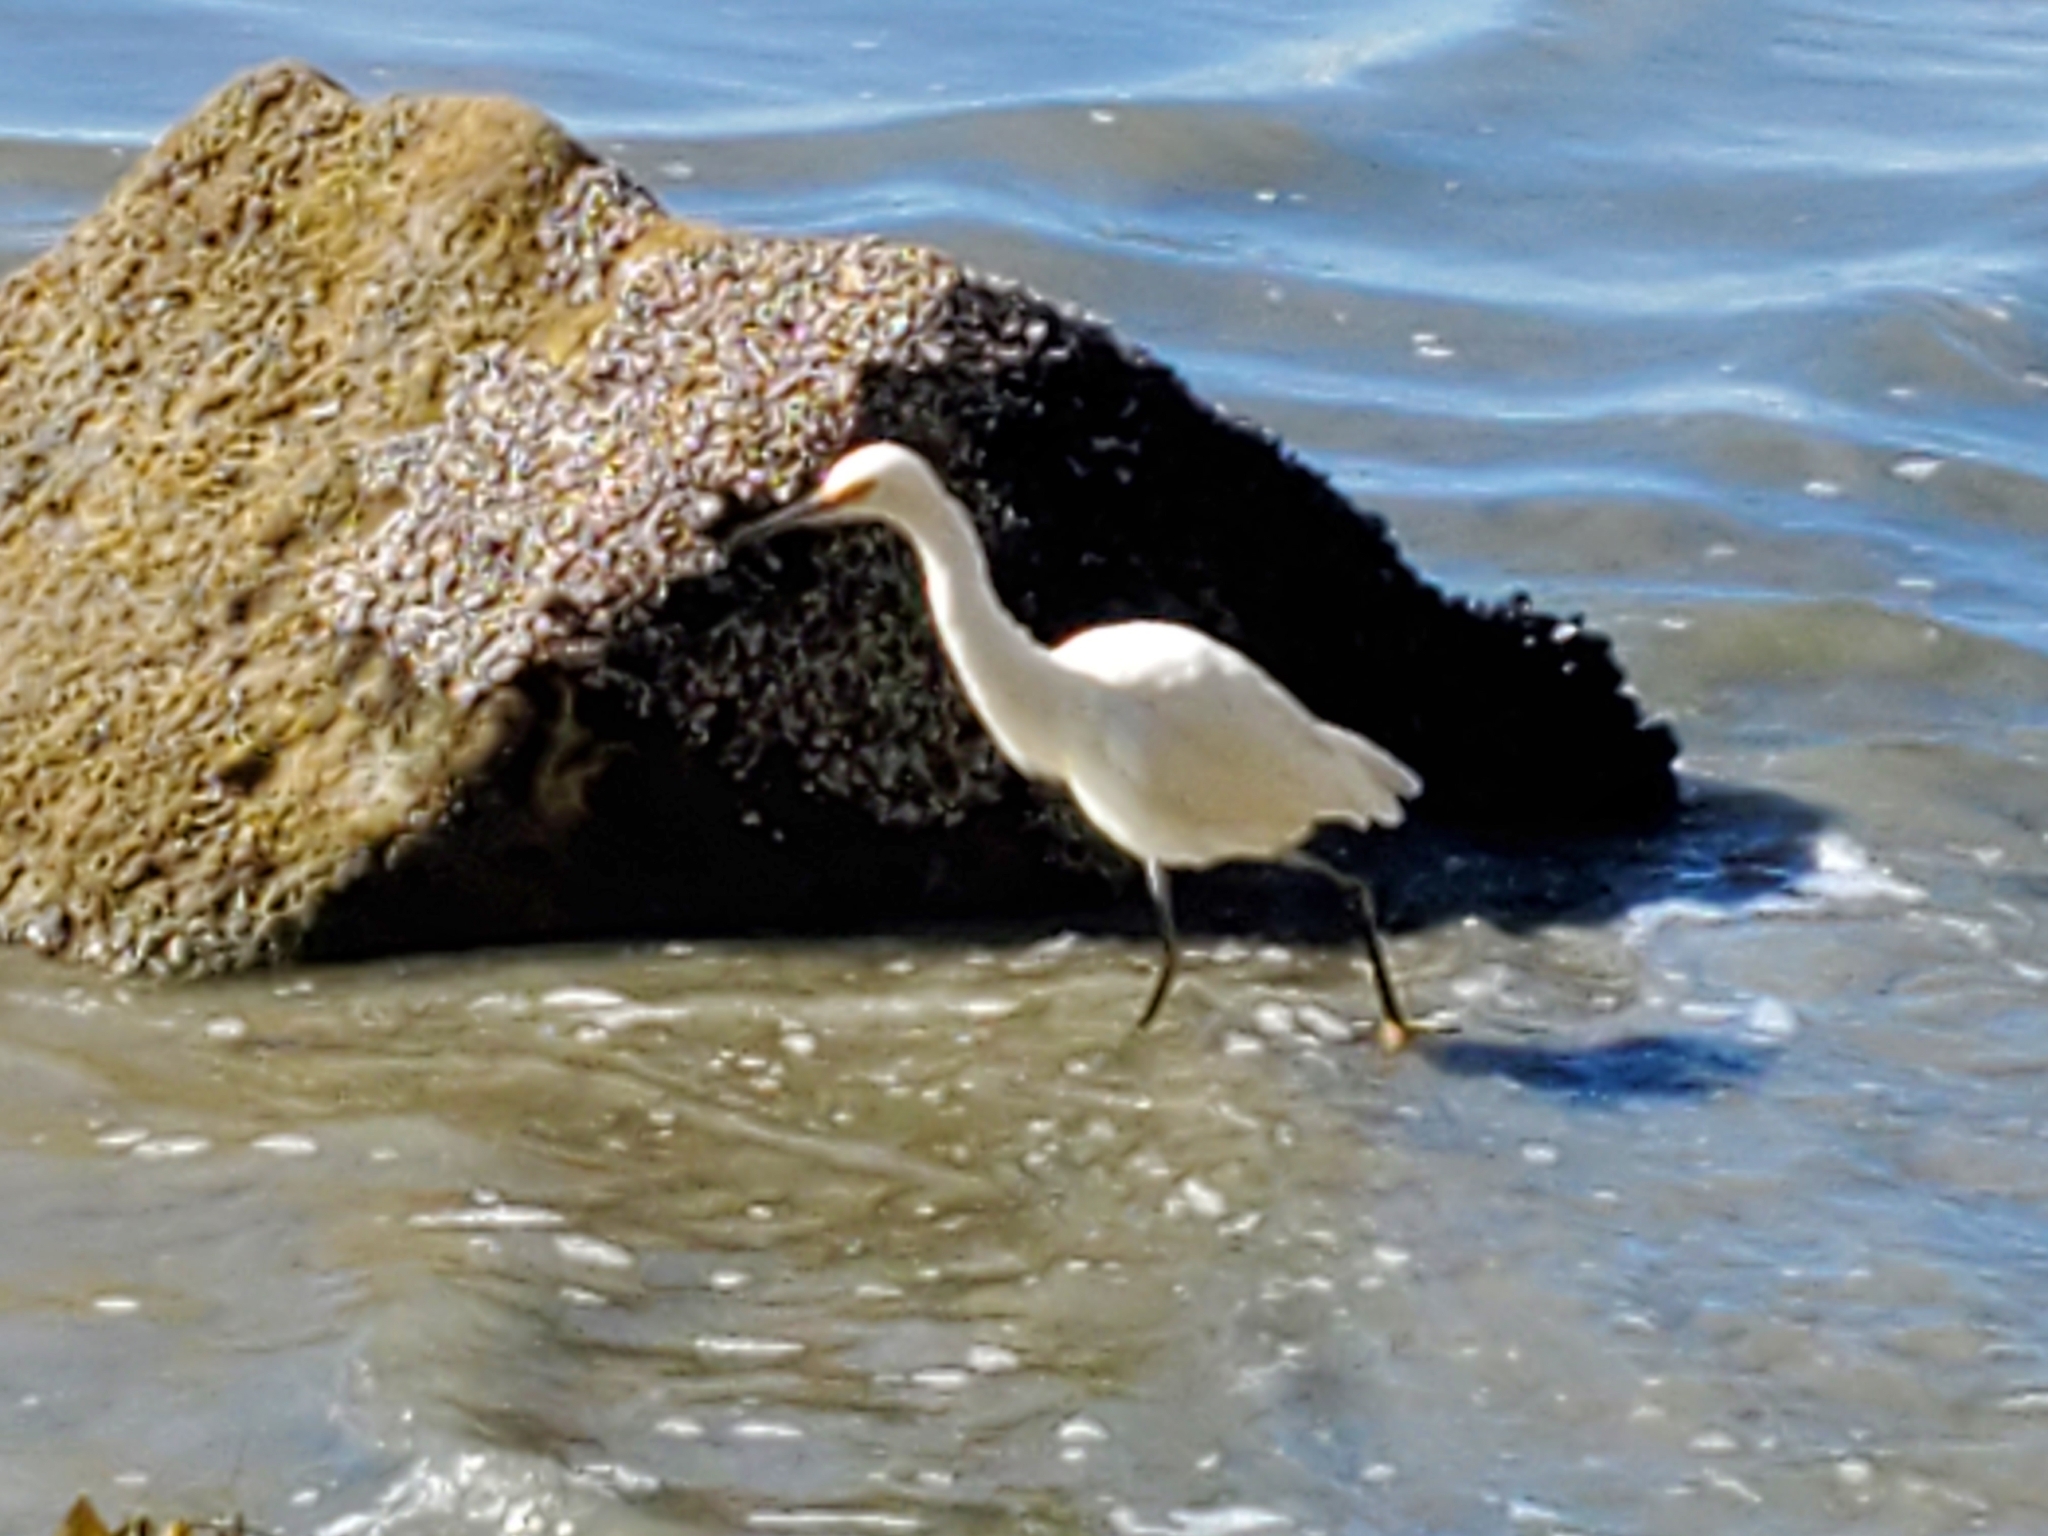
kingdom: Animalia
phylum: Chordata
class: Aves
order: Pelecaniformes
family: Ardeidae
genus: Egretta
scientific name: Egretta thula
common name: Snowy egret
